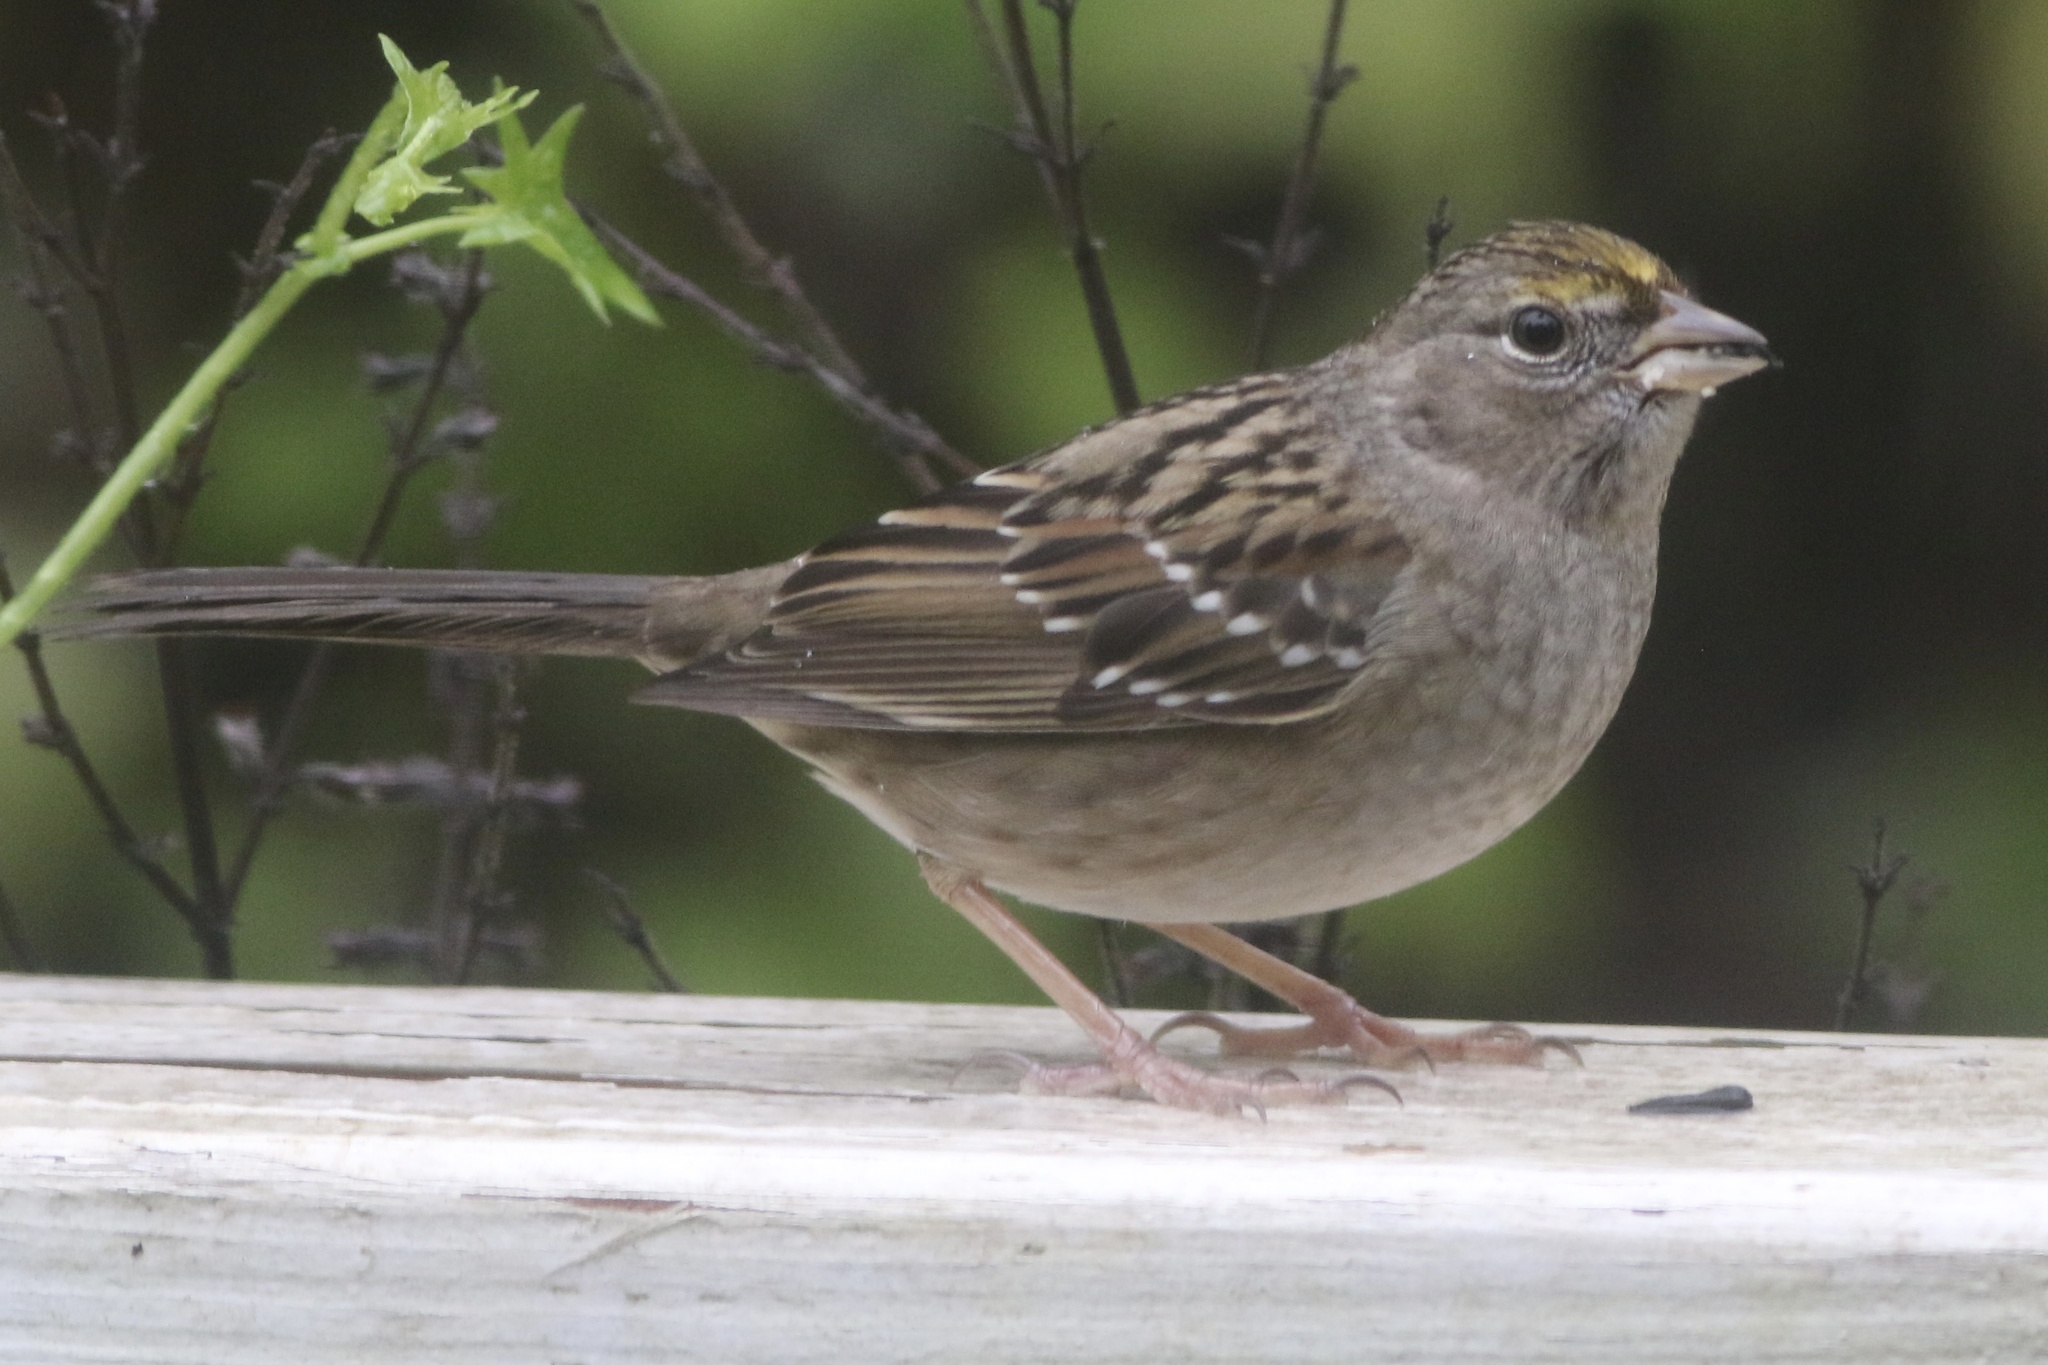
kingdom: Animalia
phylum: Chordata
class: Aves
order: Passeriformes
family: Passerellidae
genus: Zonotrichia
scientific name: Zonotrichia atricapilla
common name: Golden-crowned sparrow
